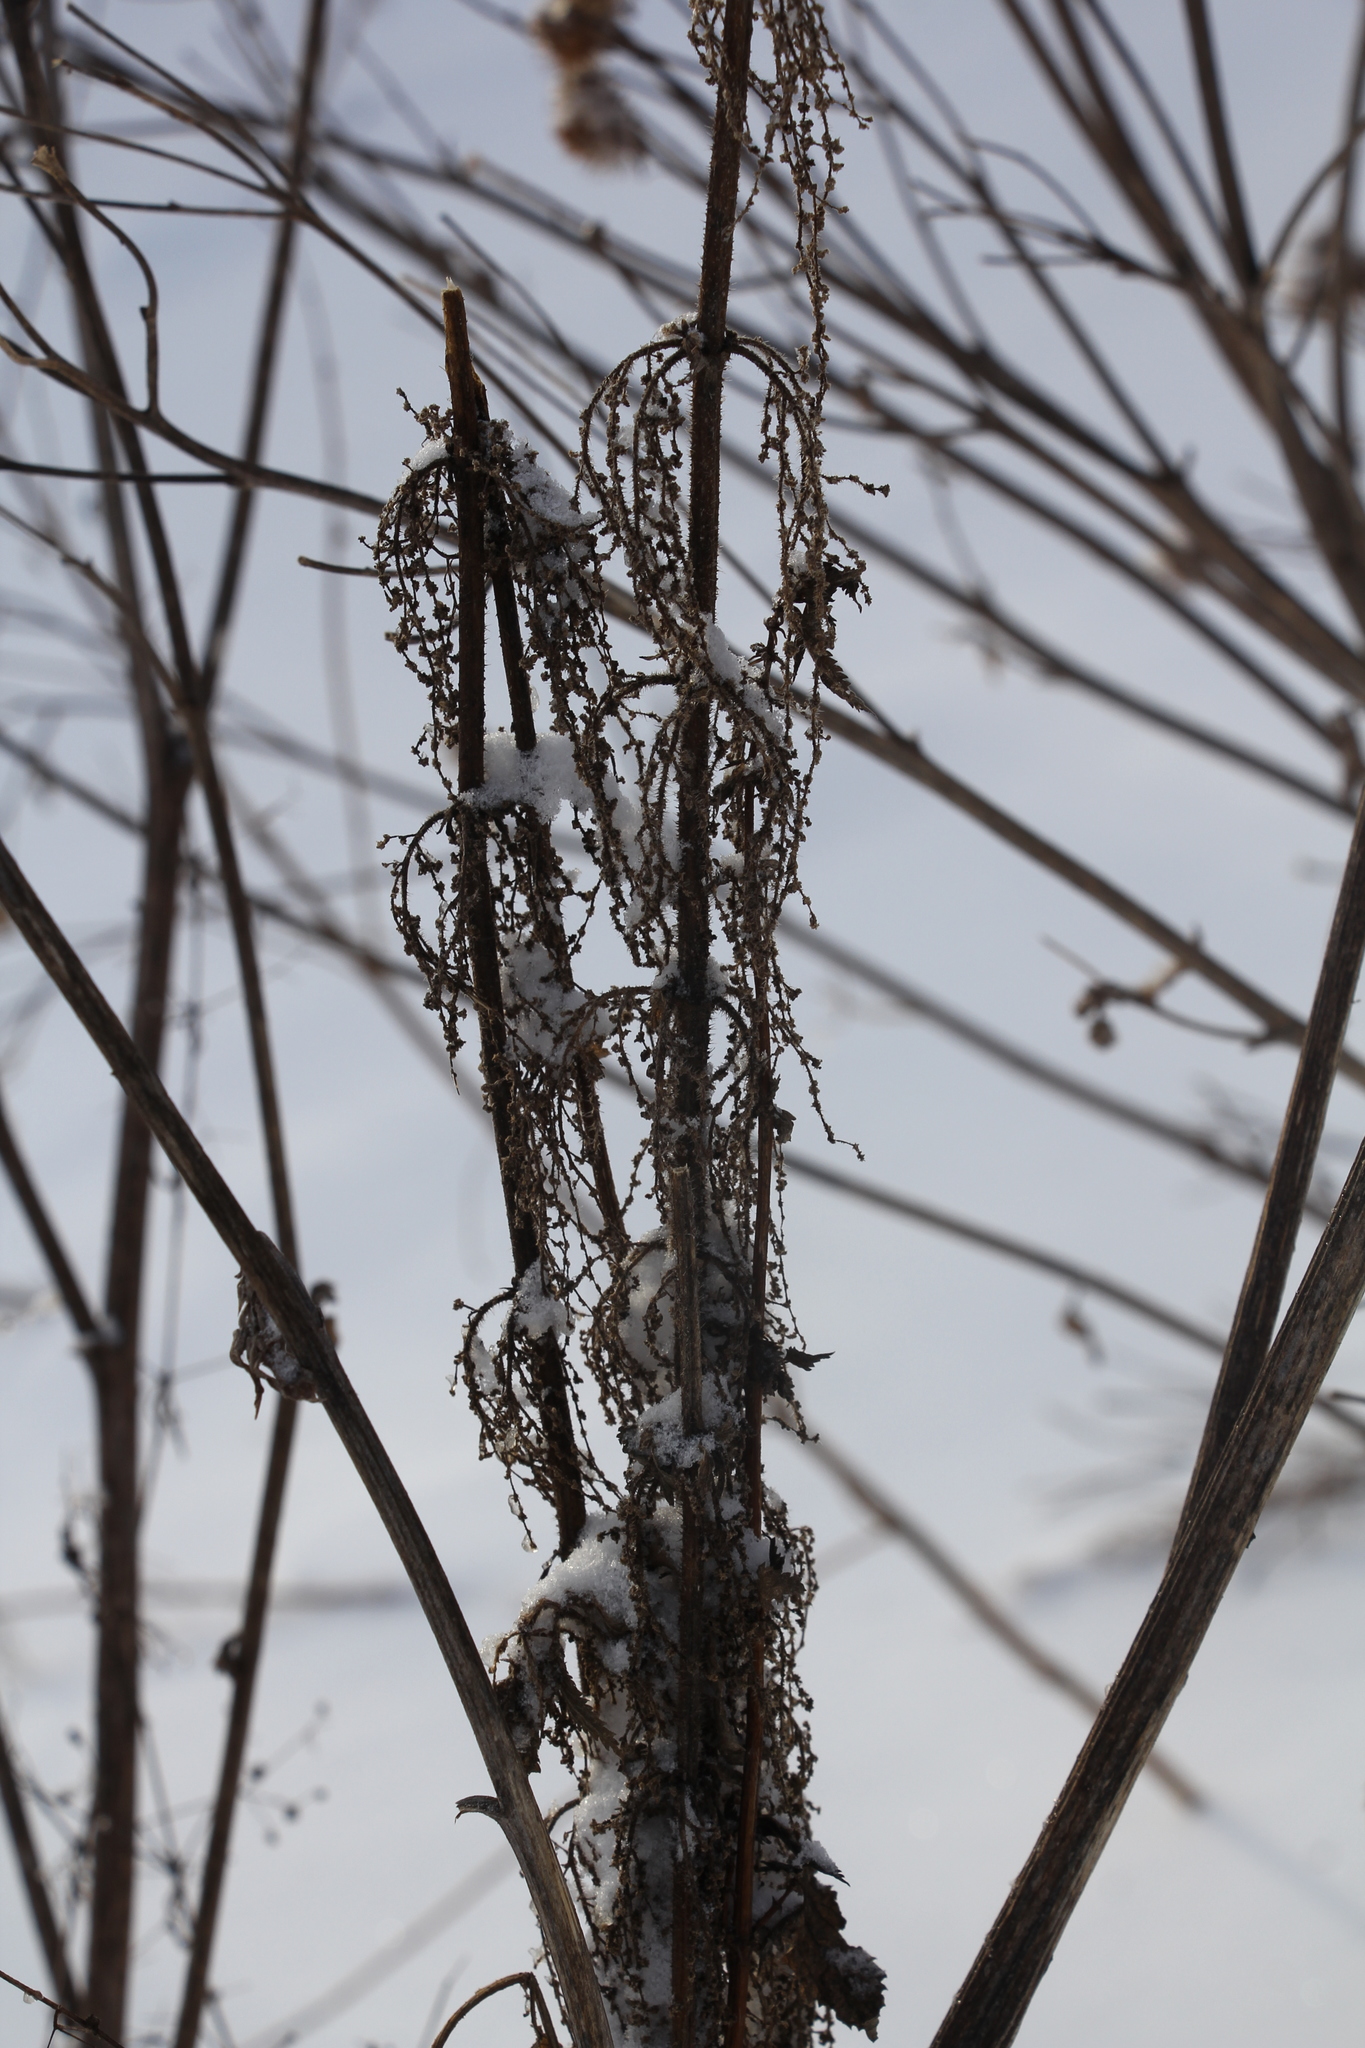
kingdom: Plantae
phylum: Tracheophyta
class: Magnoliopsida
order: Rosales
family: Urticaceae
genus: Urtica
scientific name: Urtica dioica
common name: Common nettle
